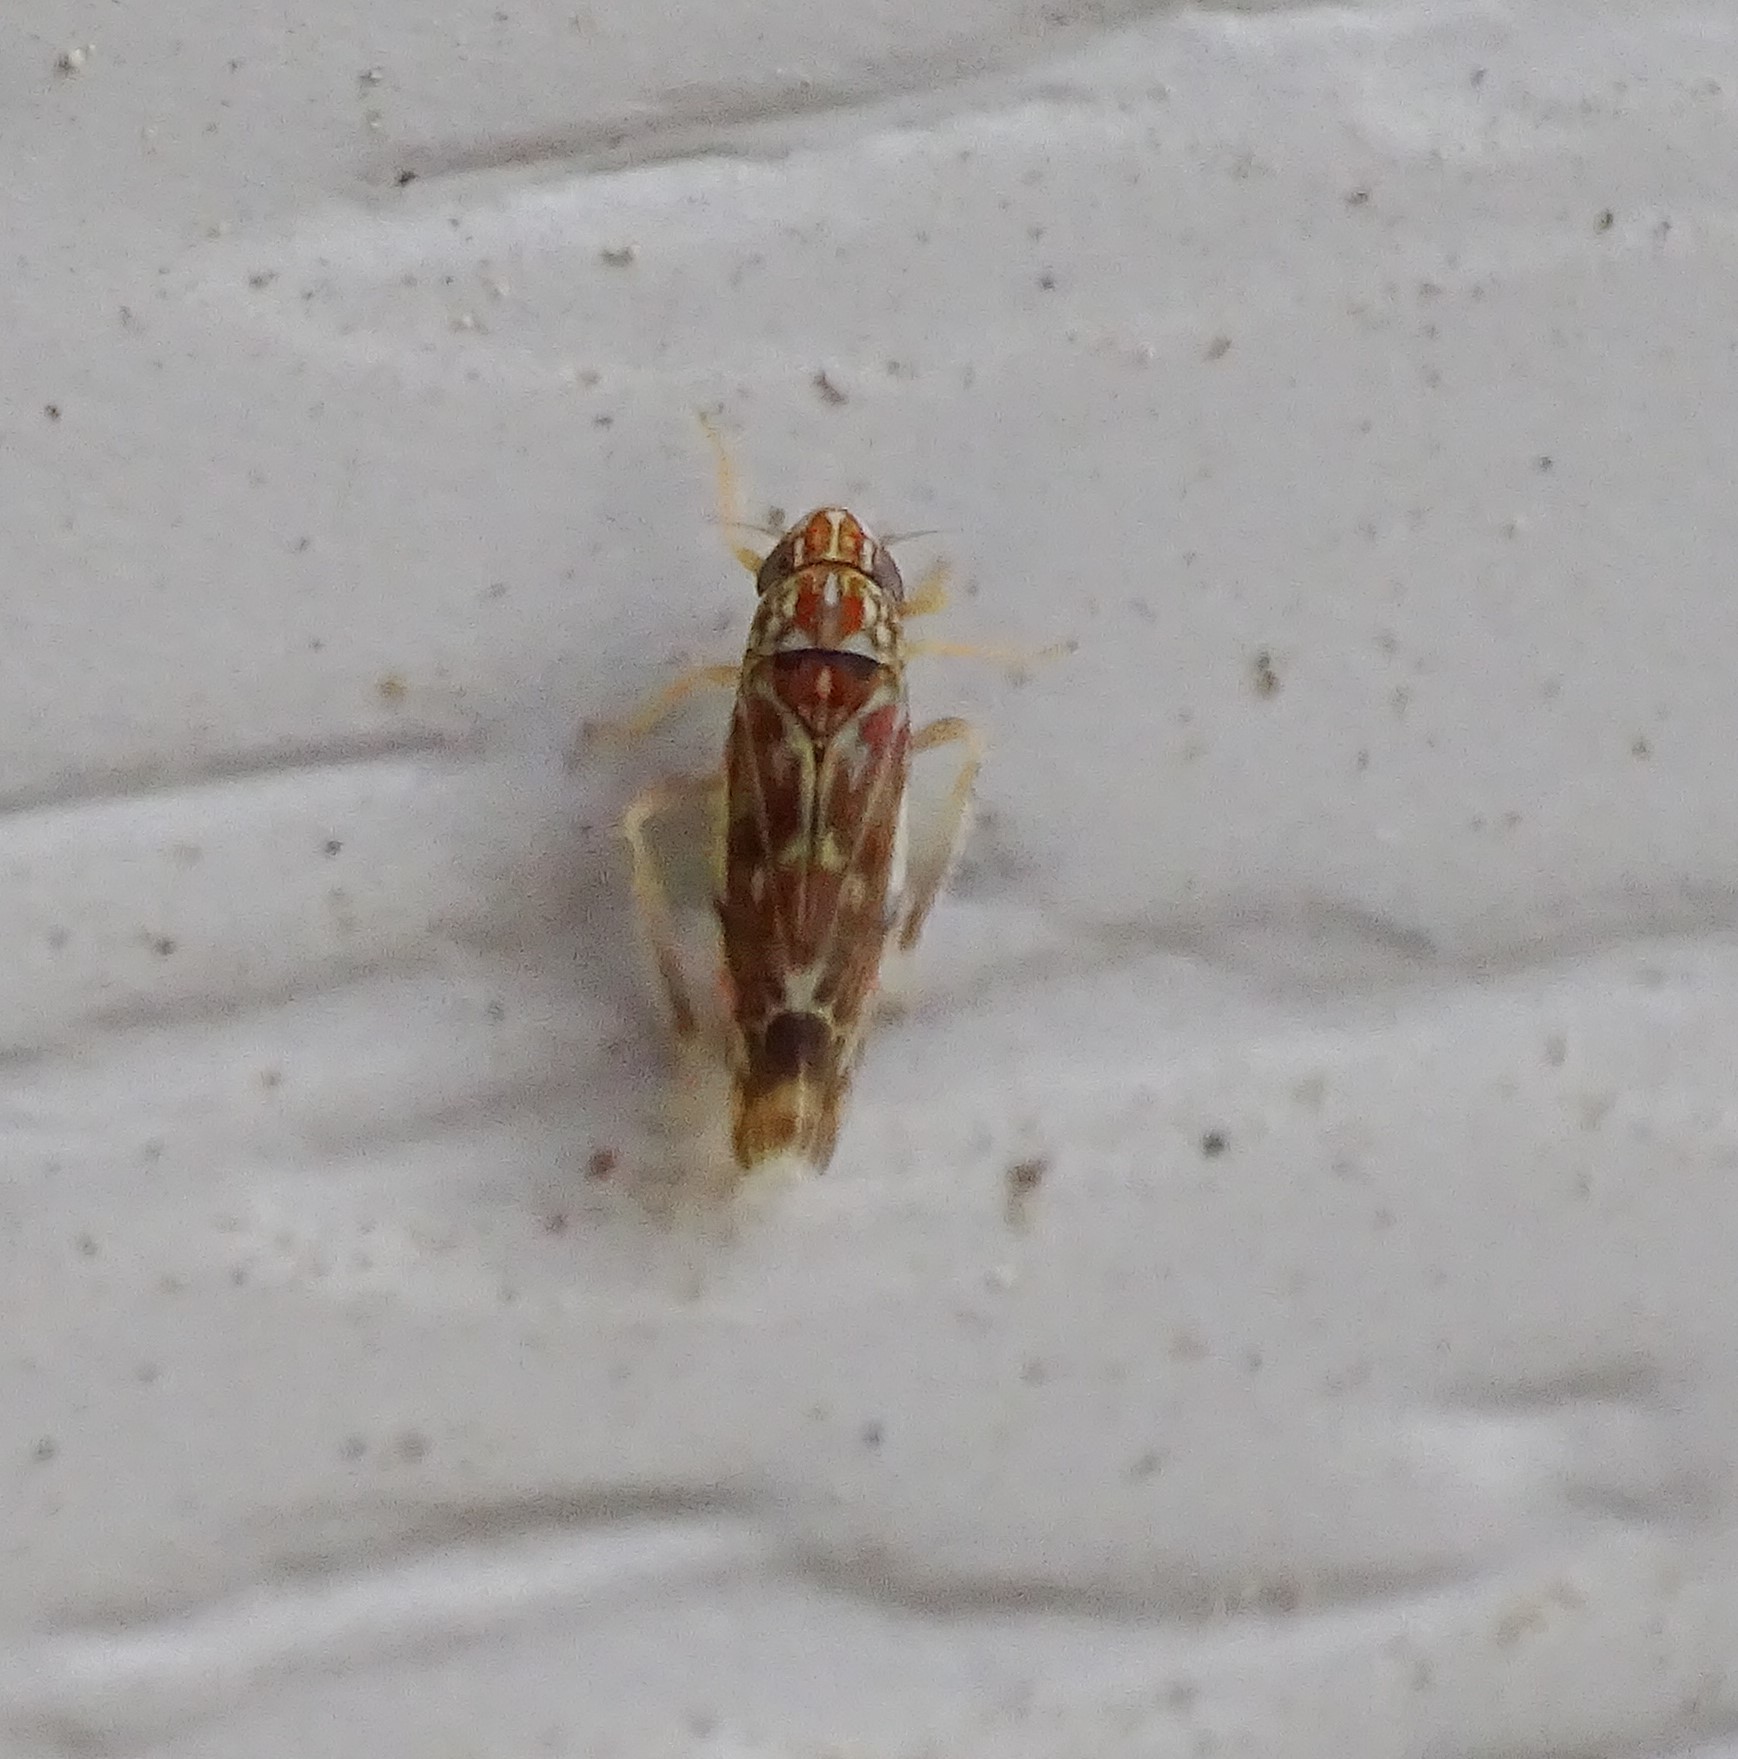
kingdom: Animalia
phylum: Arthropoda
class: Insecta
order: Hemiptera
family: Cicadellidae
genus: Erasmoneura
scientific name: Erasmoneura vulnerata
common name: The wounded leafhopper
